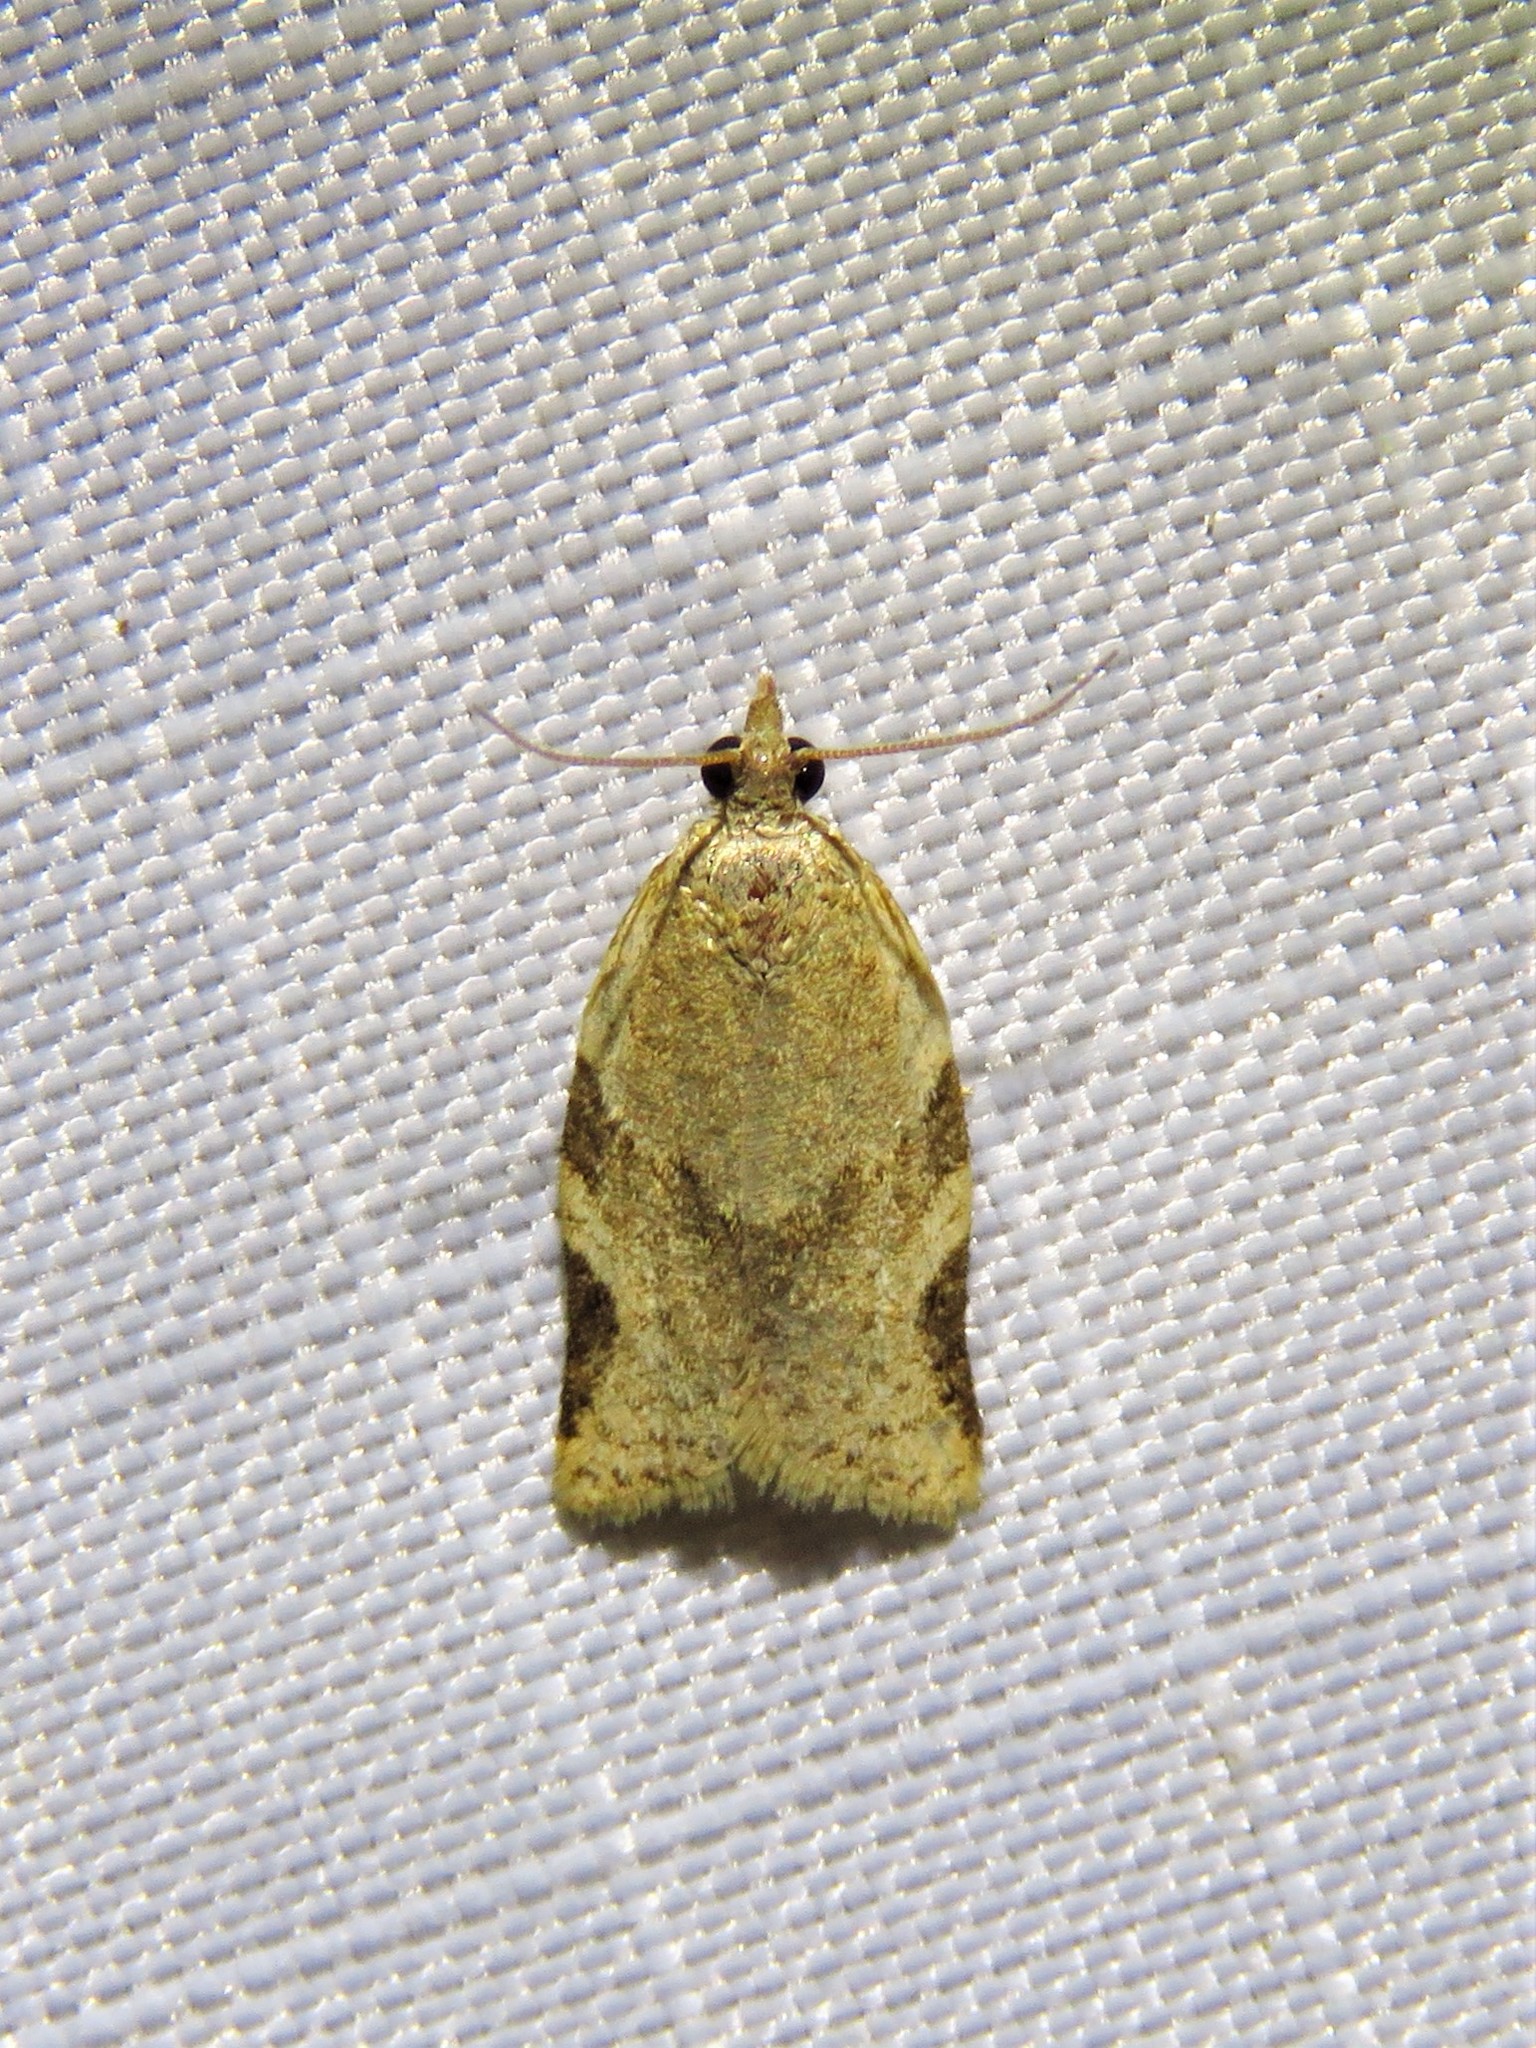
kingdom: Animalia
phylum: Arthropoda
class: Insecta
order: Lepidoptera
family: Tortricidae
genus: Clepsis
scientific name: Clepsis virescana
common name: Greenish apple moth
